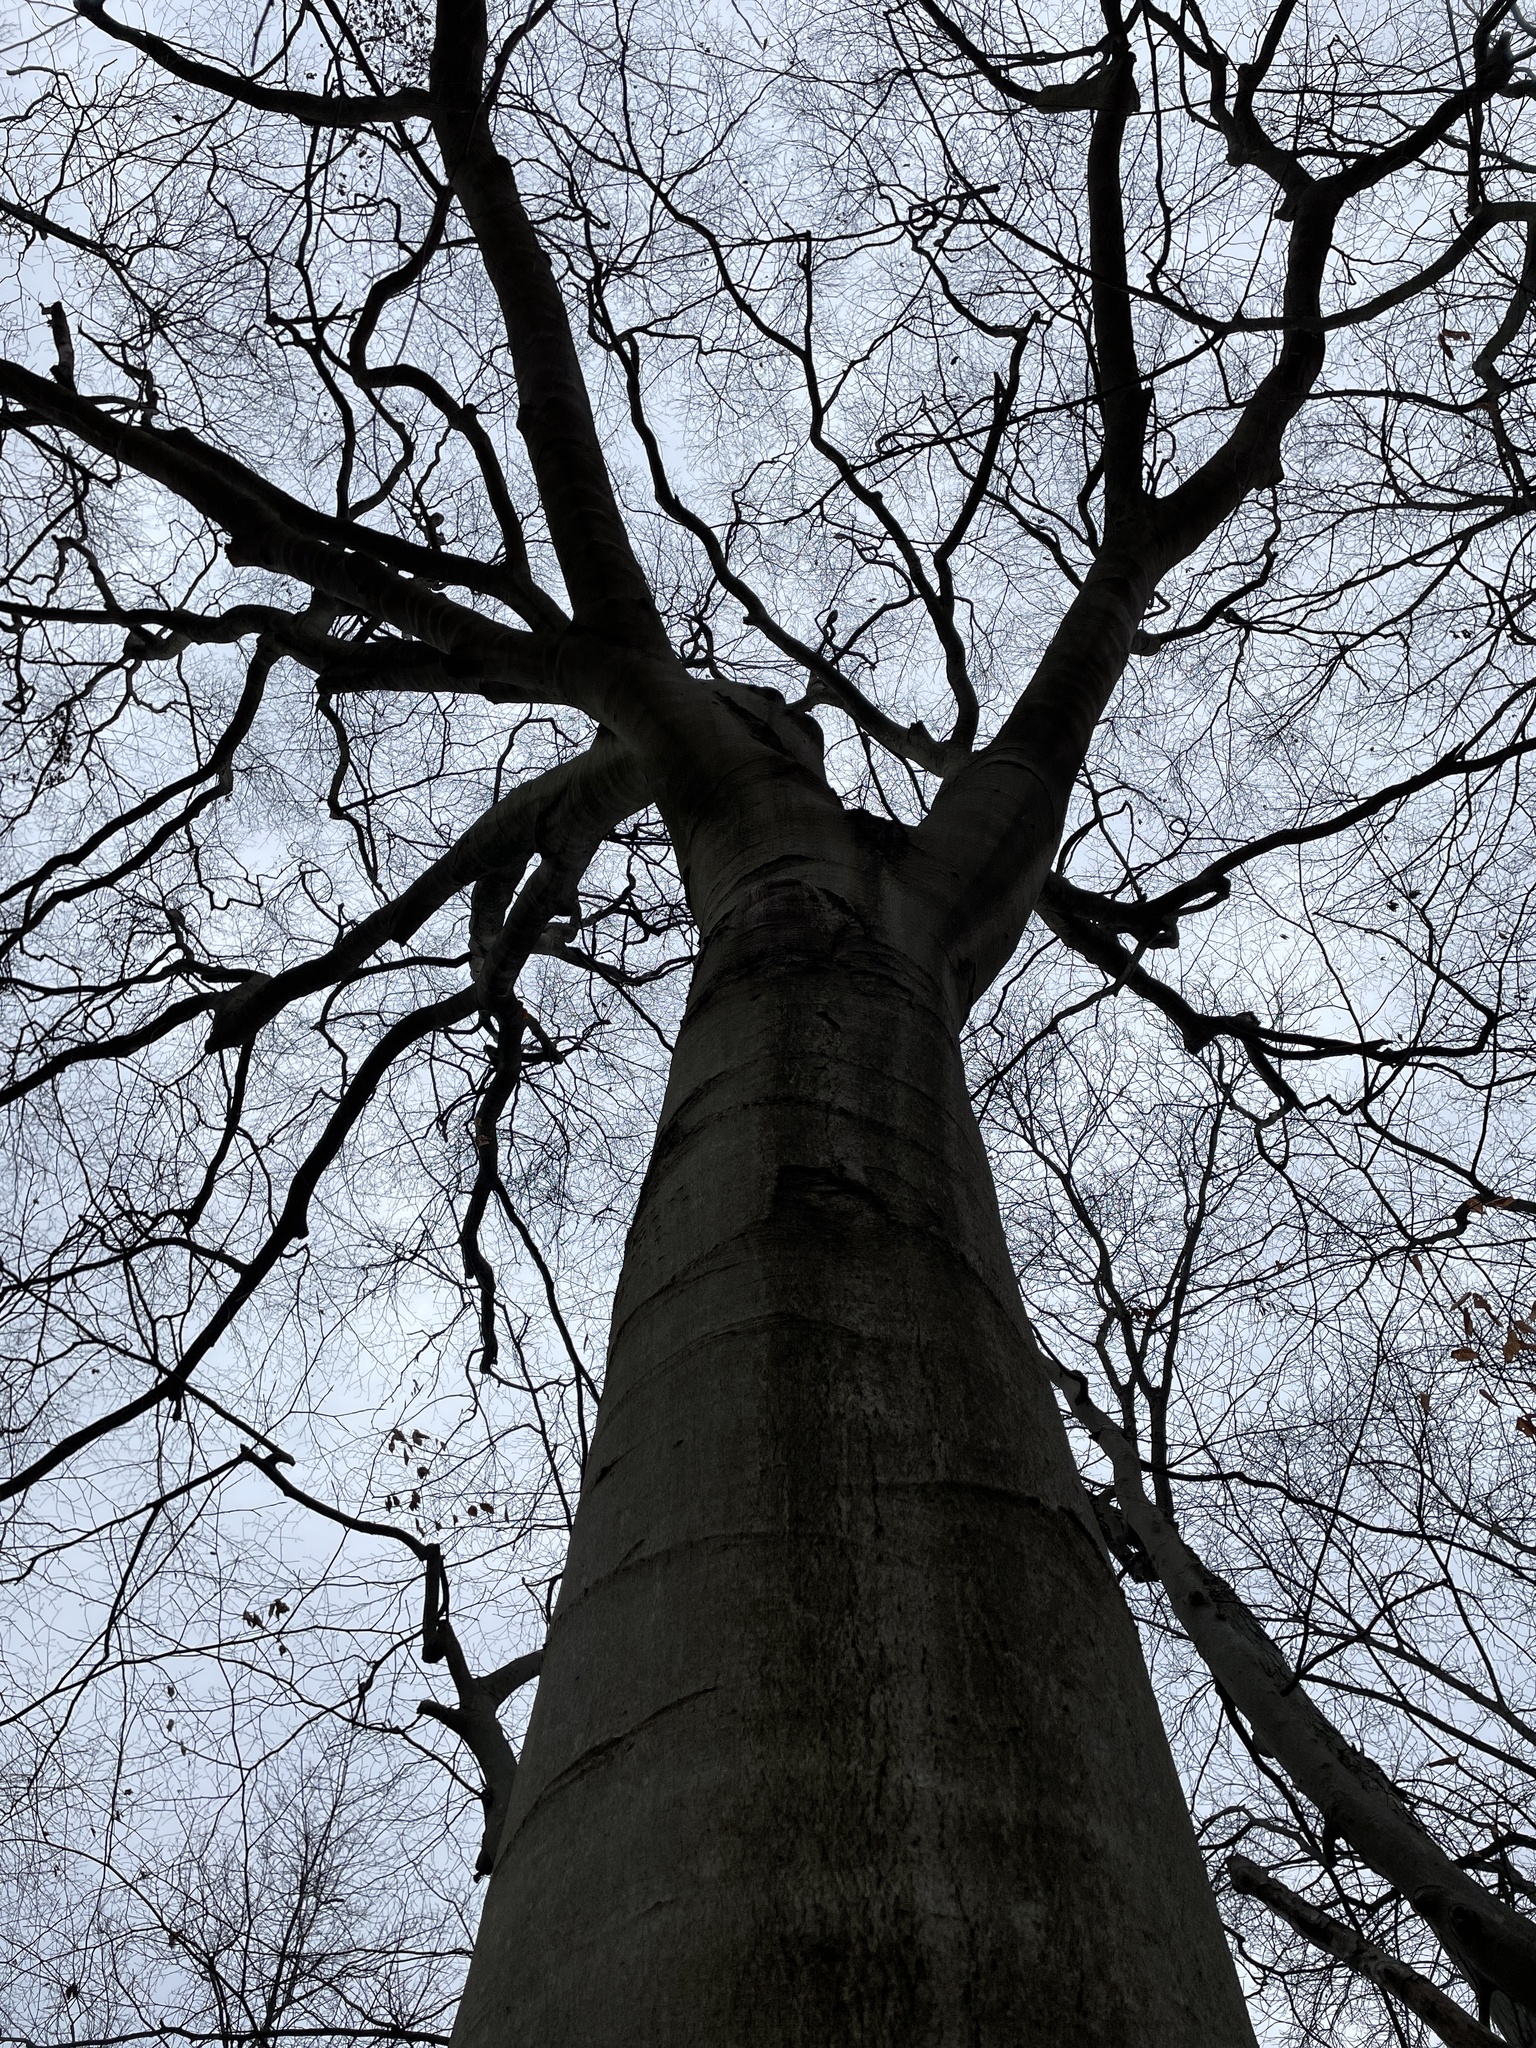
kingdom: Plantae
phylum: Tracheophyta
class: Magnoliopsida
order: Fagales
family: Fagaceae
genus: Fagus
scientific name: Fagus grandifolia
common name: American beech
